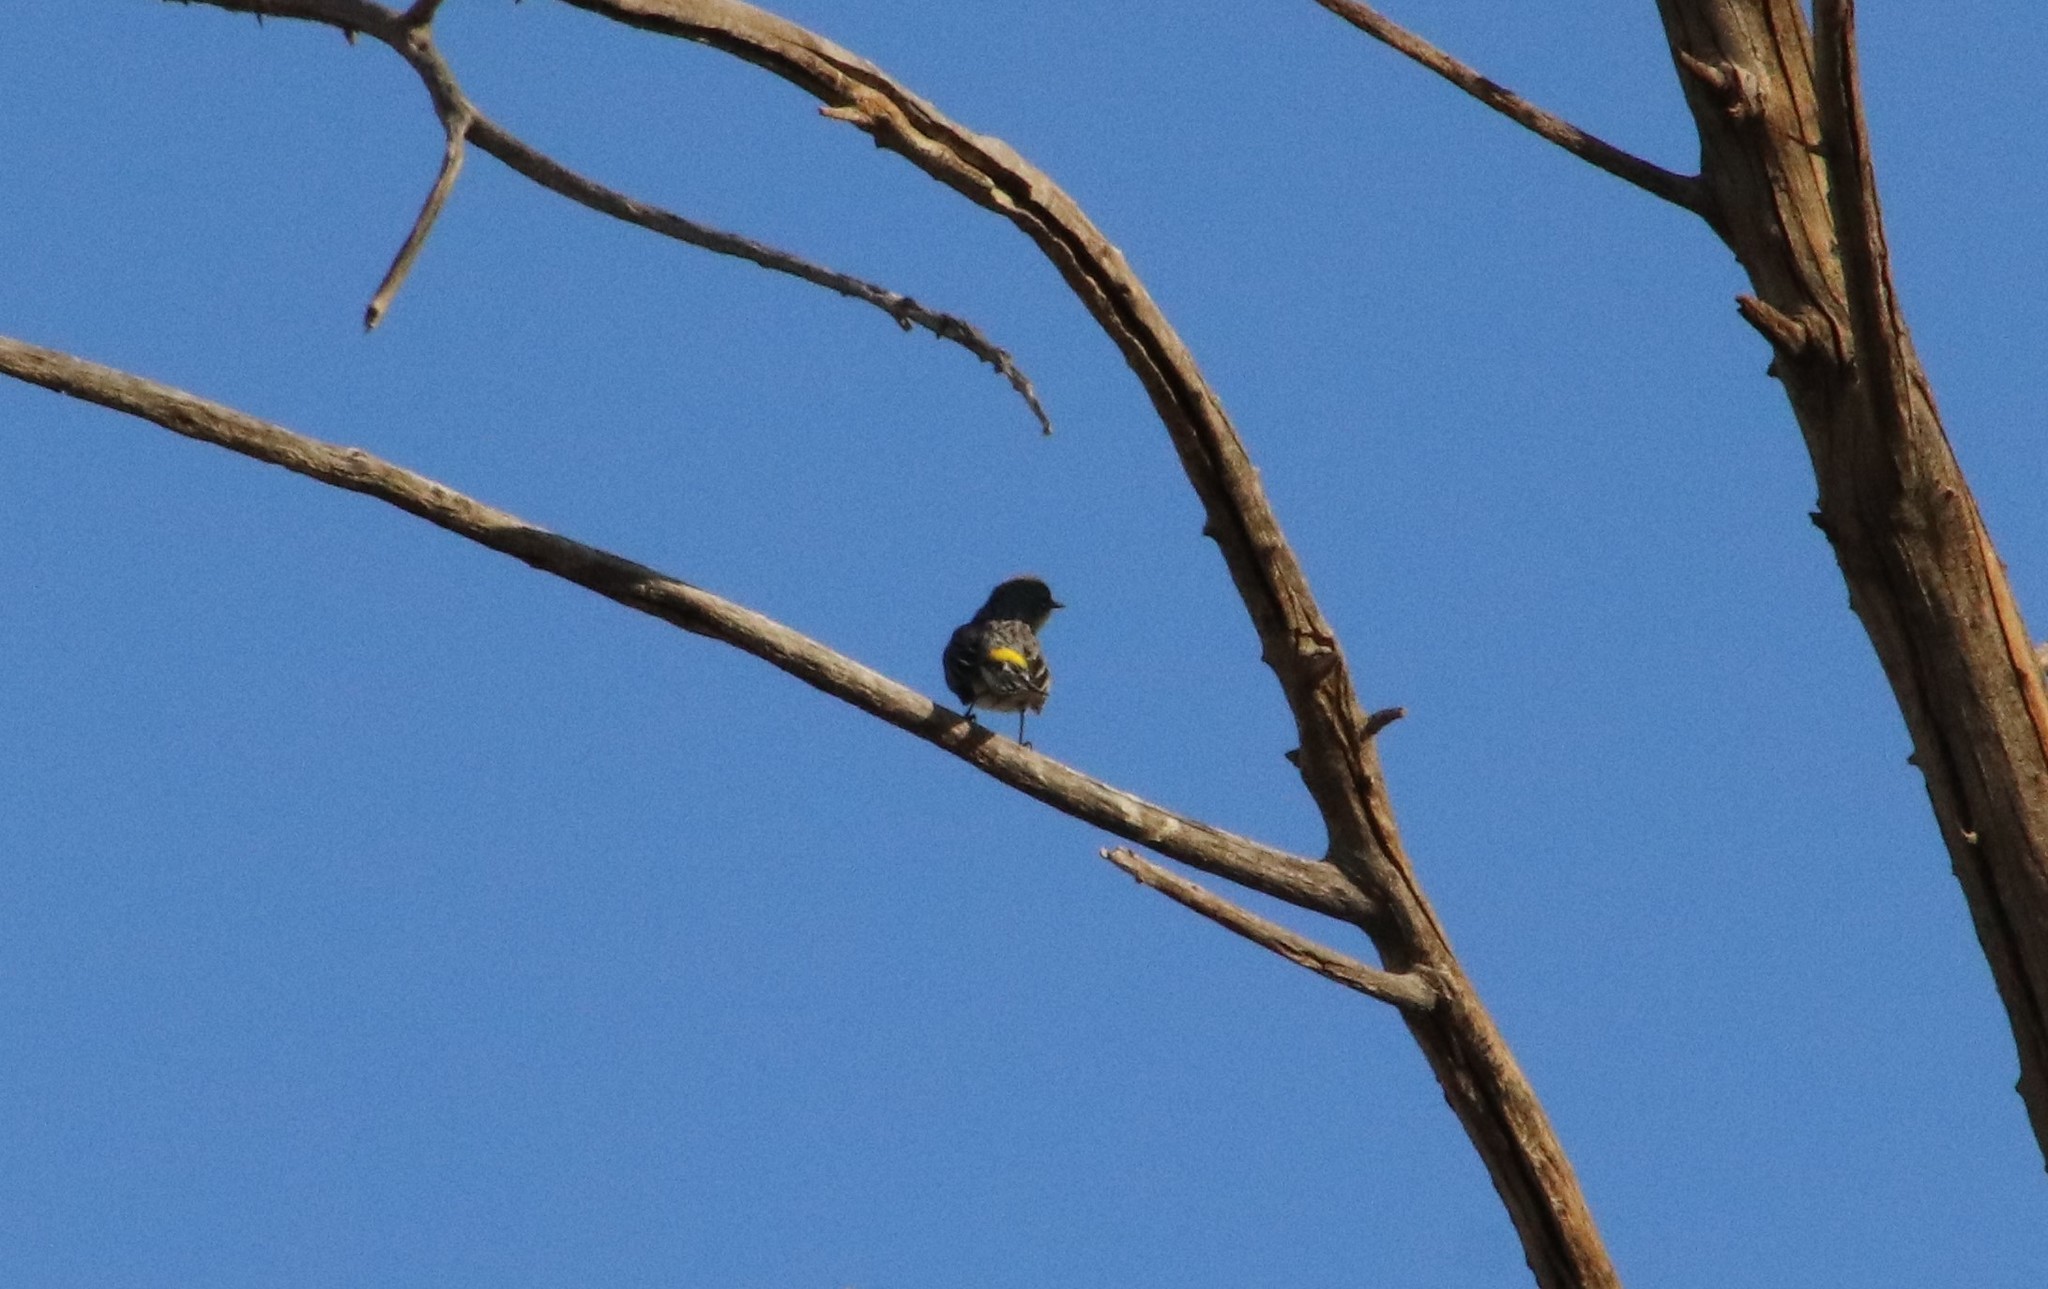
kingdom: Animalia
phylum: Chordata
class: Aves
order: Passeriformes
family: Parulidae
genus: Setophaga
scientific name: Setophaga coronata
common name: Myrtle warbler
